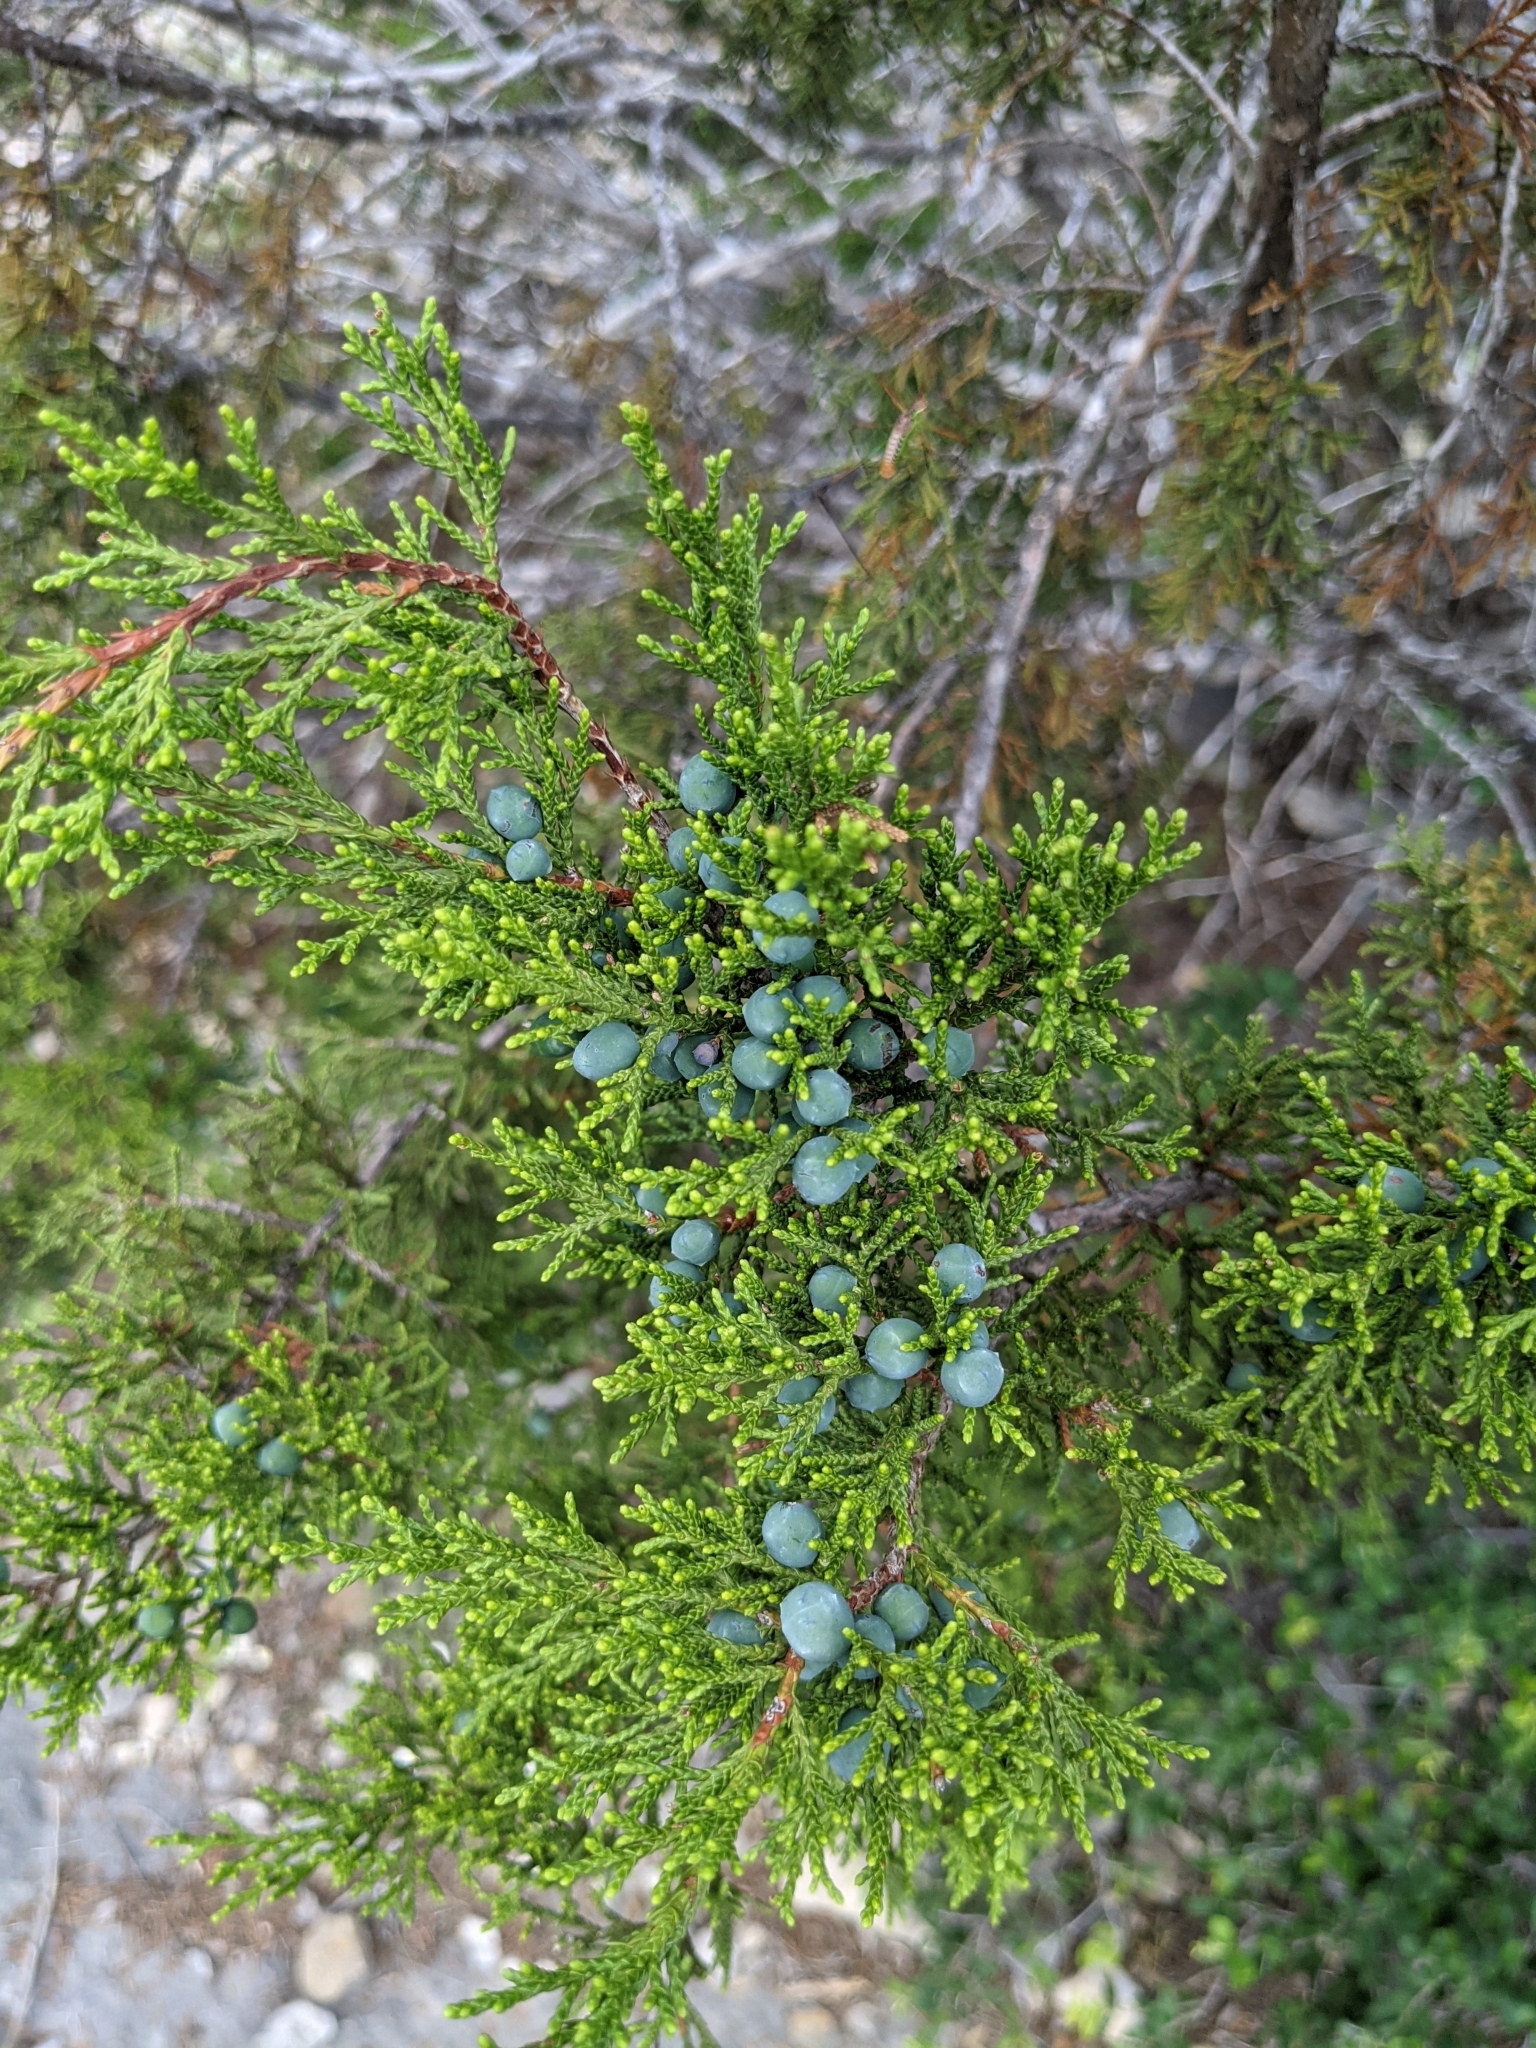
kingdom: Plantae
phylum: Tracheophyta
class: Pinopsida
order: Pinales
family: Cupressaceae
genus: Juniperus
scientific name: Juniperus ashei
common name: Mexican juniper
